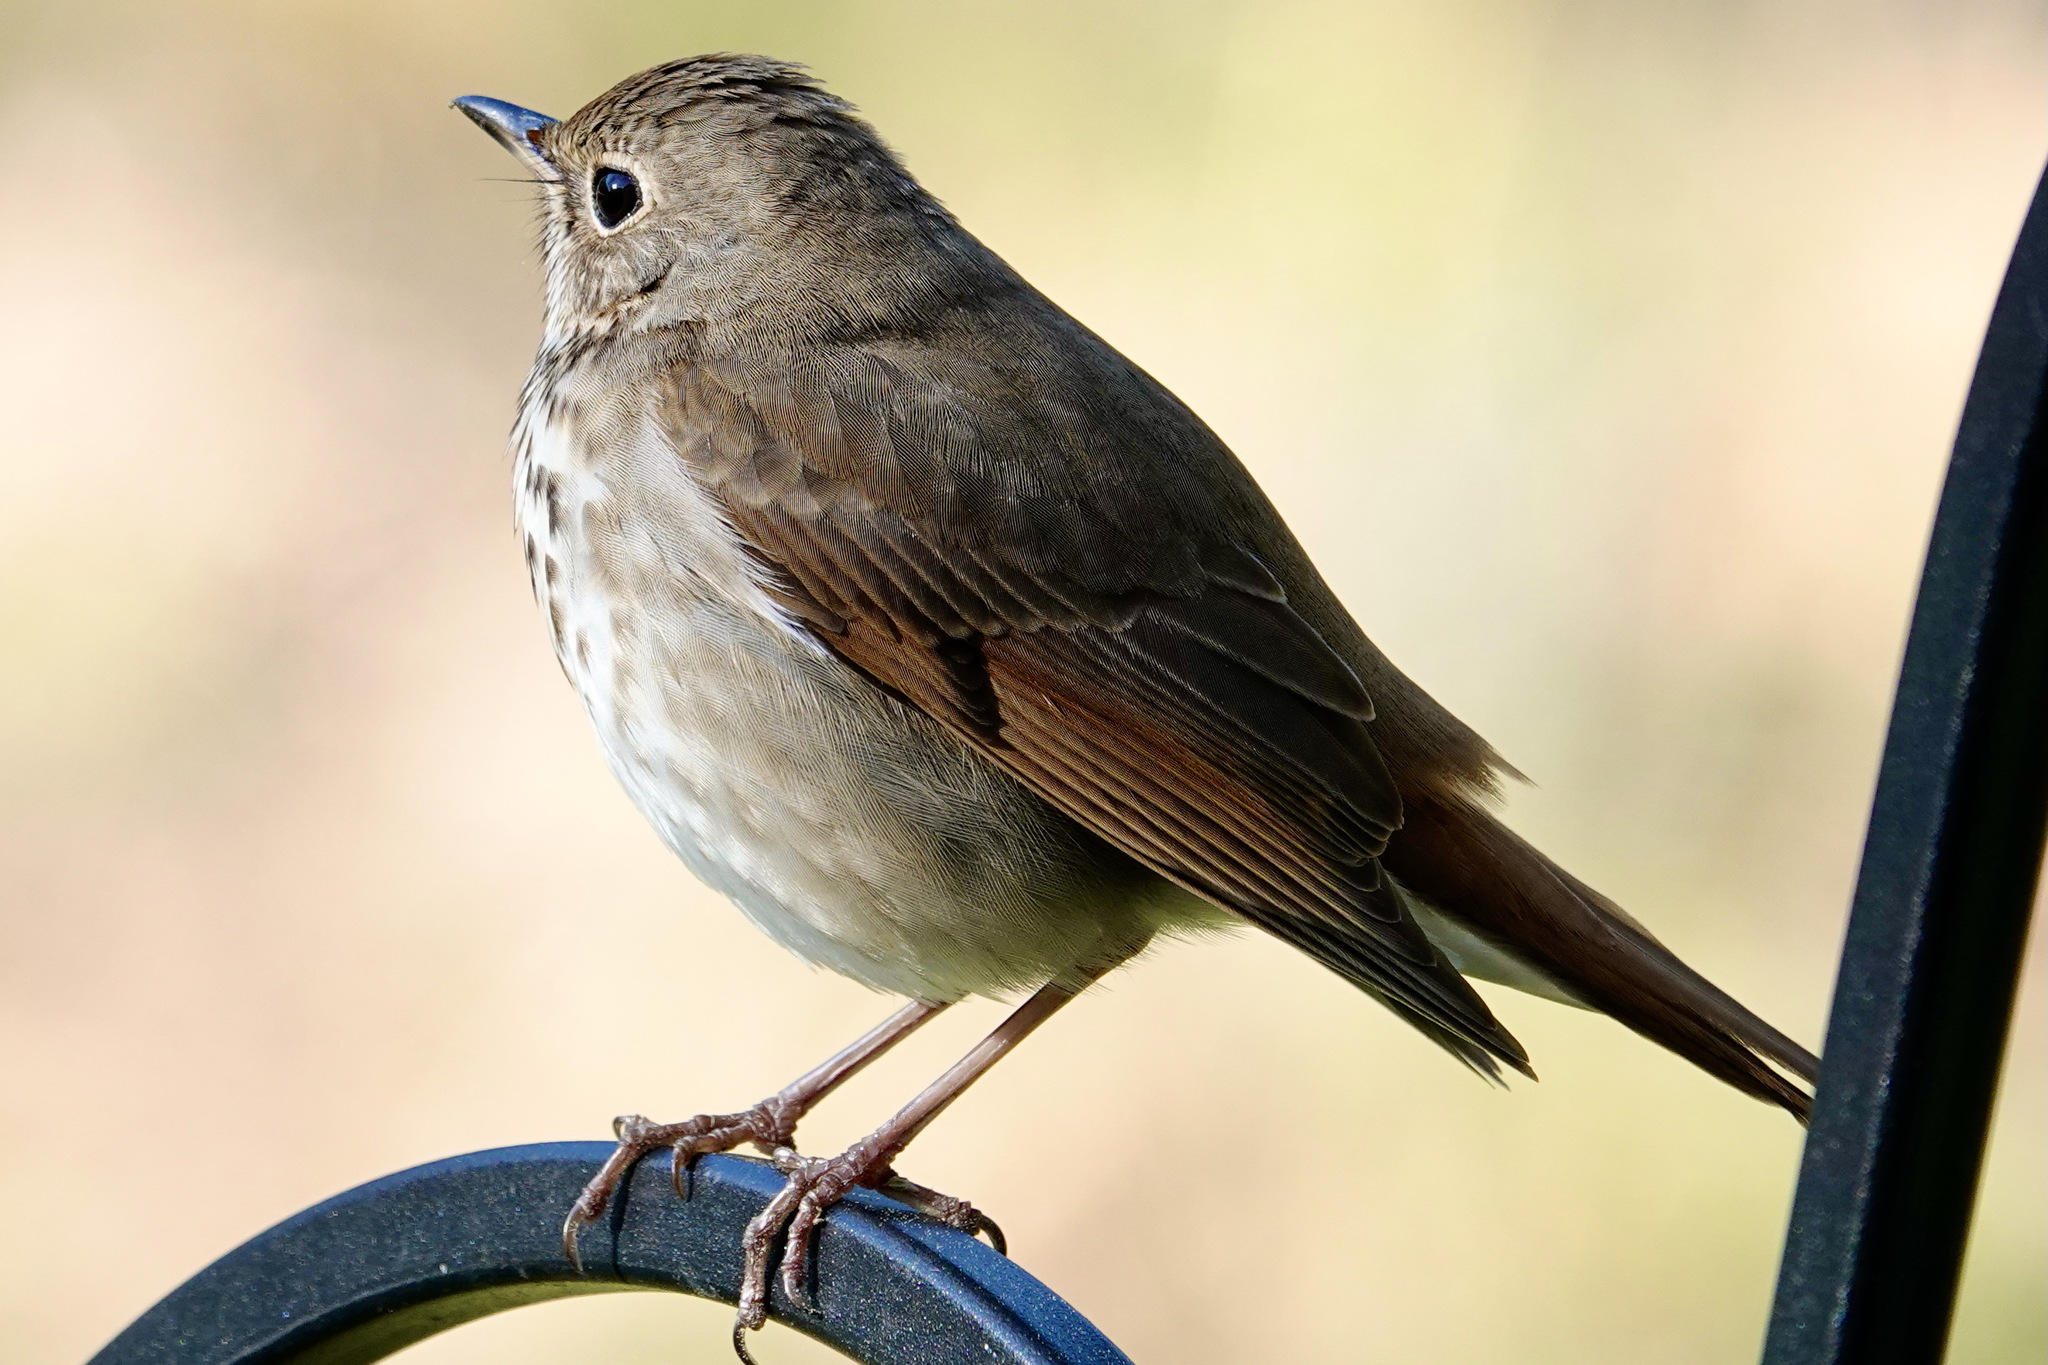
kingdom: Animalia
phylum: Chordata
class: Aves
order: Passeriformes
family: Turdidae
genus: Catharus
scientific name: Catharus guttatus
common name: Hermit thrush
